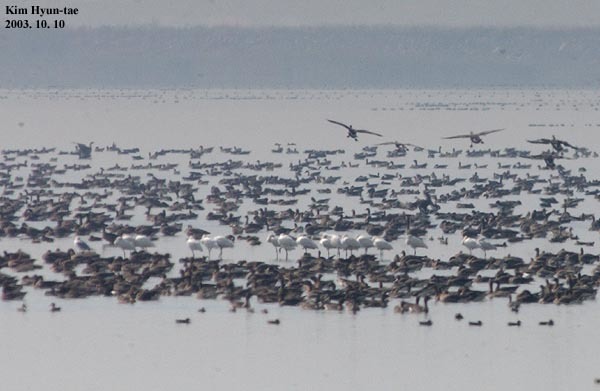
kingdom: Animalia
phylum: Chordata
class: Aves
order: Pelecaniformes
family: Threskiornithidae
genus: Platalea
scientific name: Platalea leucorodia
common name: Eurasian spoonbill
